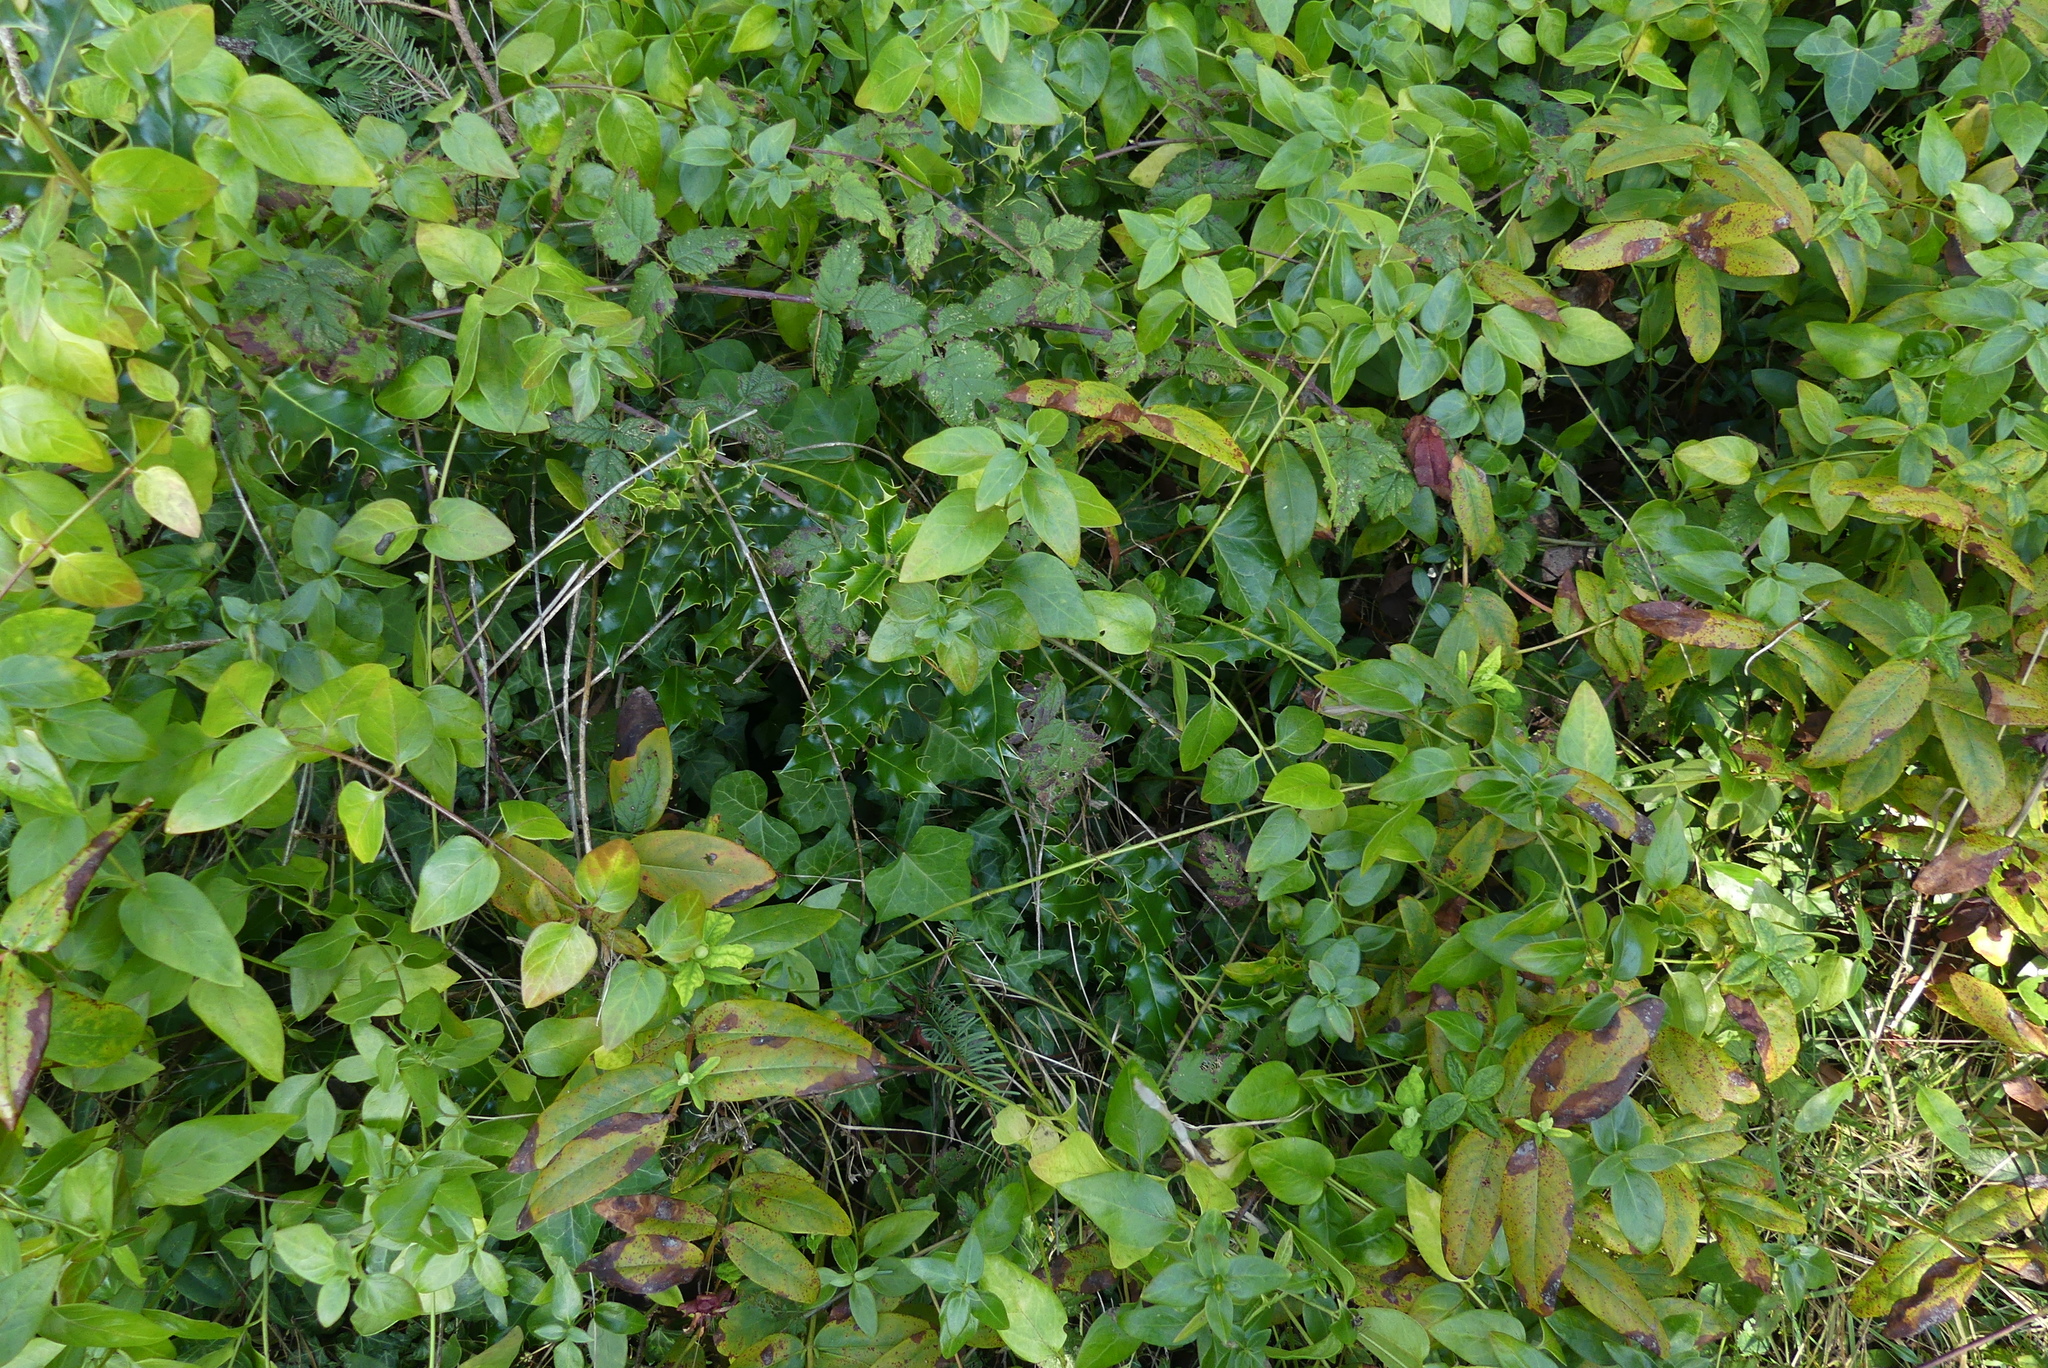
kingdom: Plantae
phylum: Tracheophyta
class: Magnoliopsida
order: Aquifoliales
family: Aquifoliaceae
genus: Ilex
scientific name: Ilex aquifolium
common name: English holly
